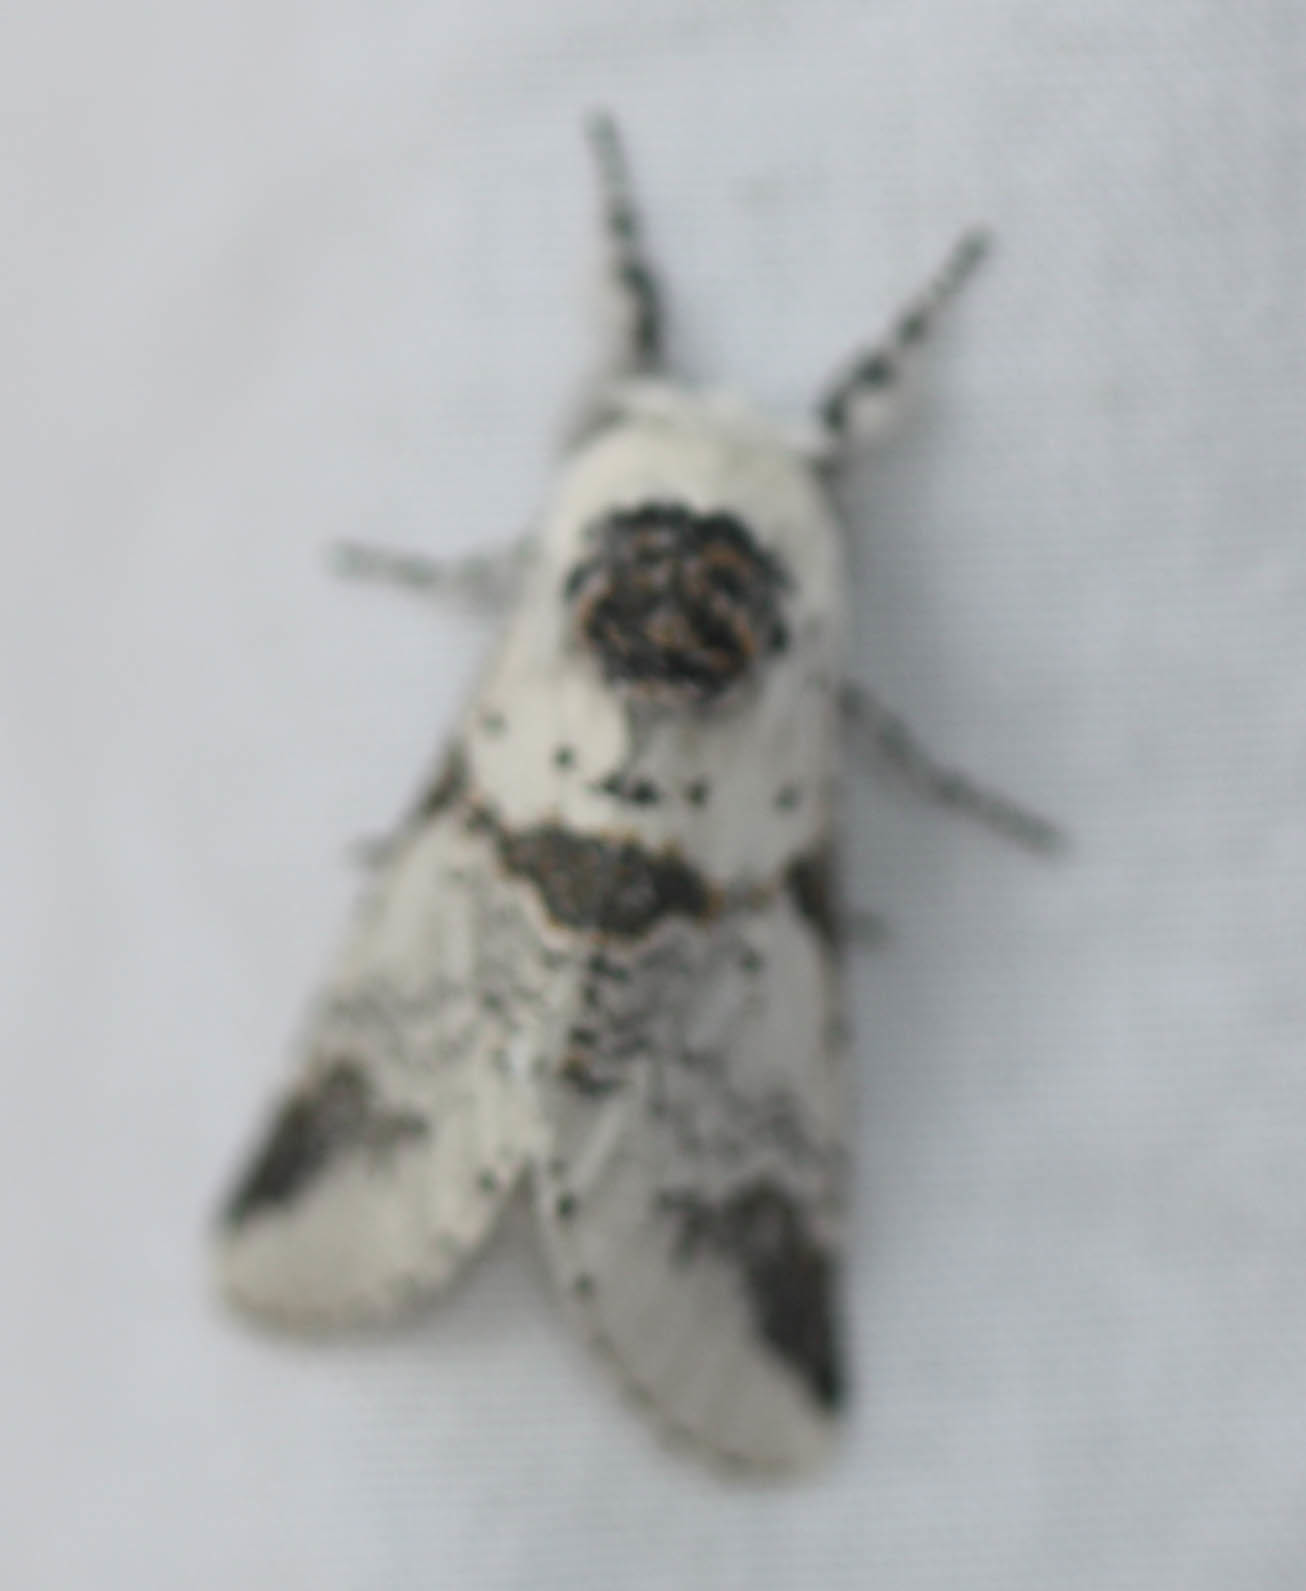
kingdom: Animalia
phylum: Arthropoda
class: Insecta
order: Lepidoptera
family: Notodontidae
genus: Furcula
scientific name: Furcula scolopendrina
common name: Zigzag furcula moth
